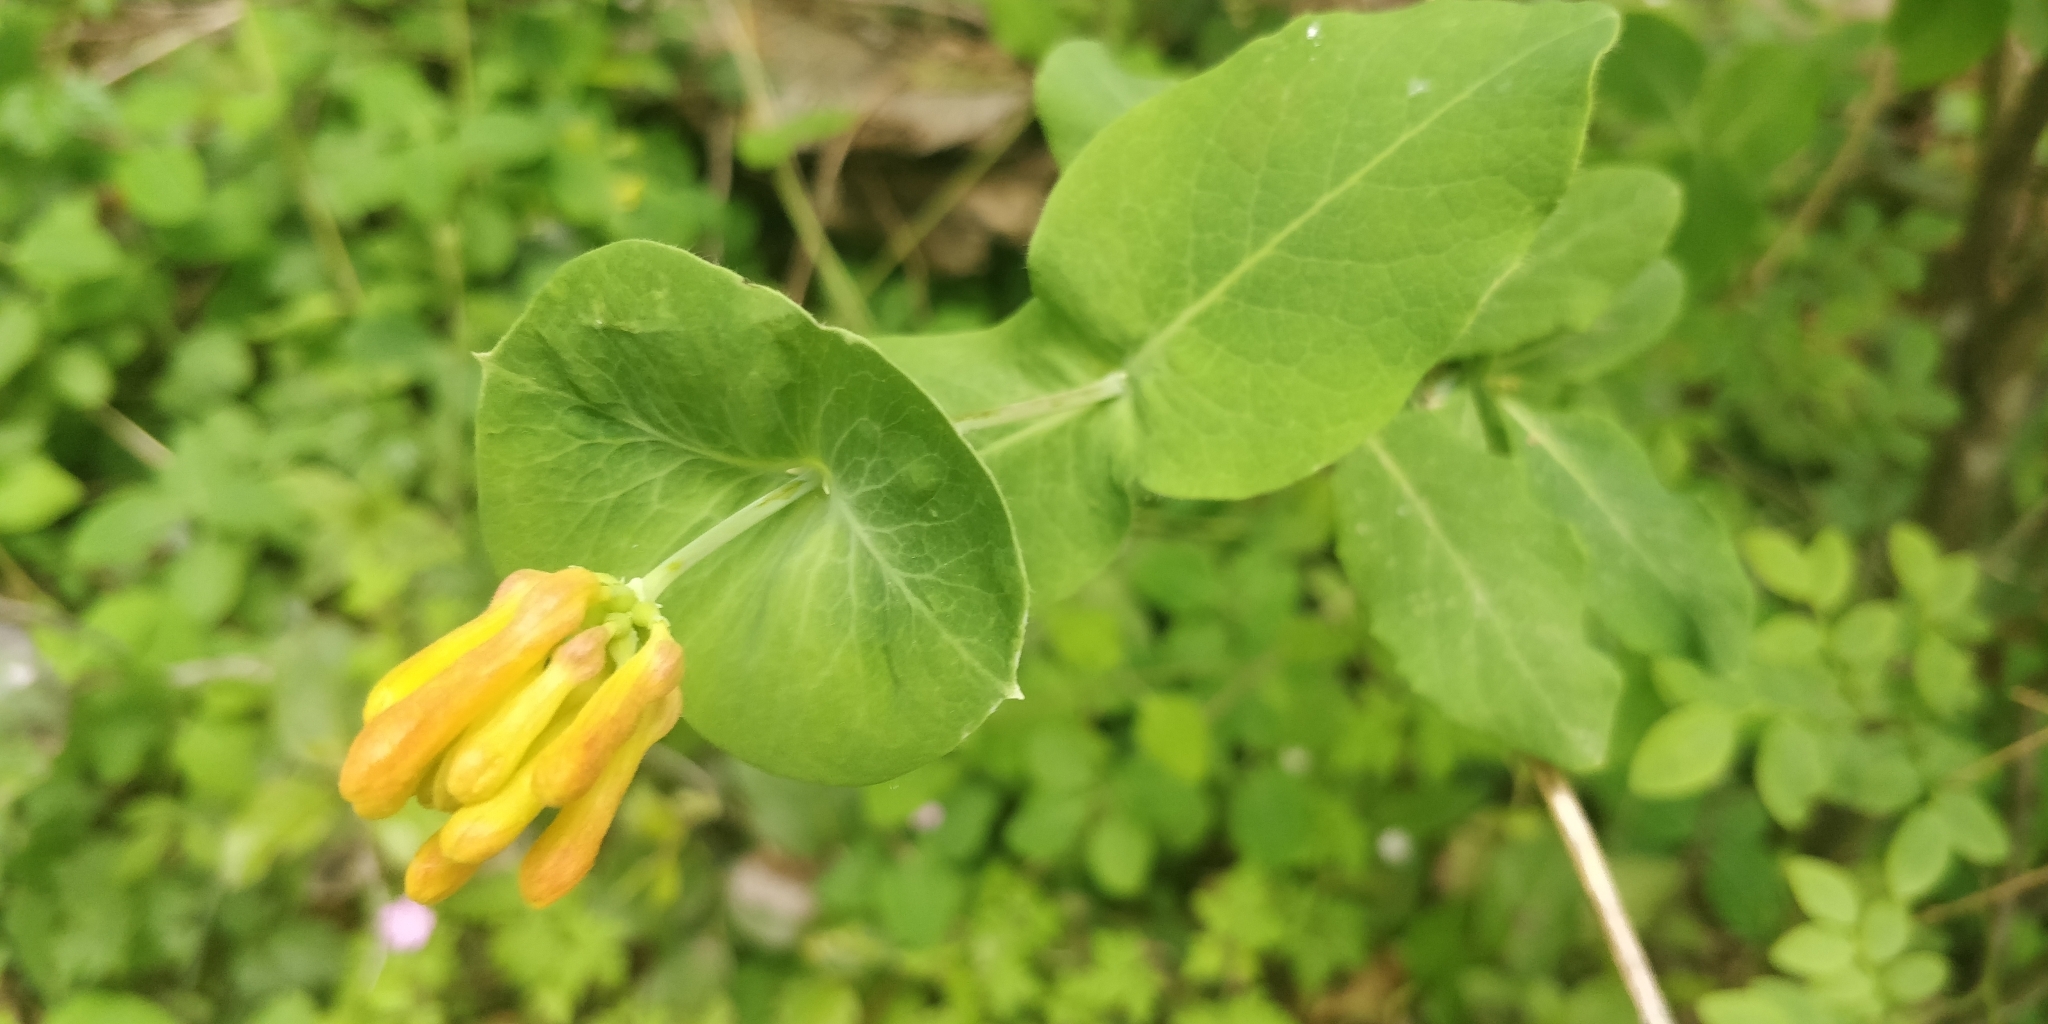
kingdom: Plantae
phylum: Tracheophyta
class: Magnoliopsida
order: Dipsacales
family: Caprifoliaceae
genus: Lonicera
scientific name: Lonicera ciliosa
